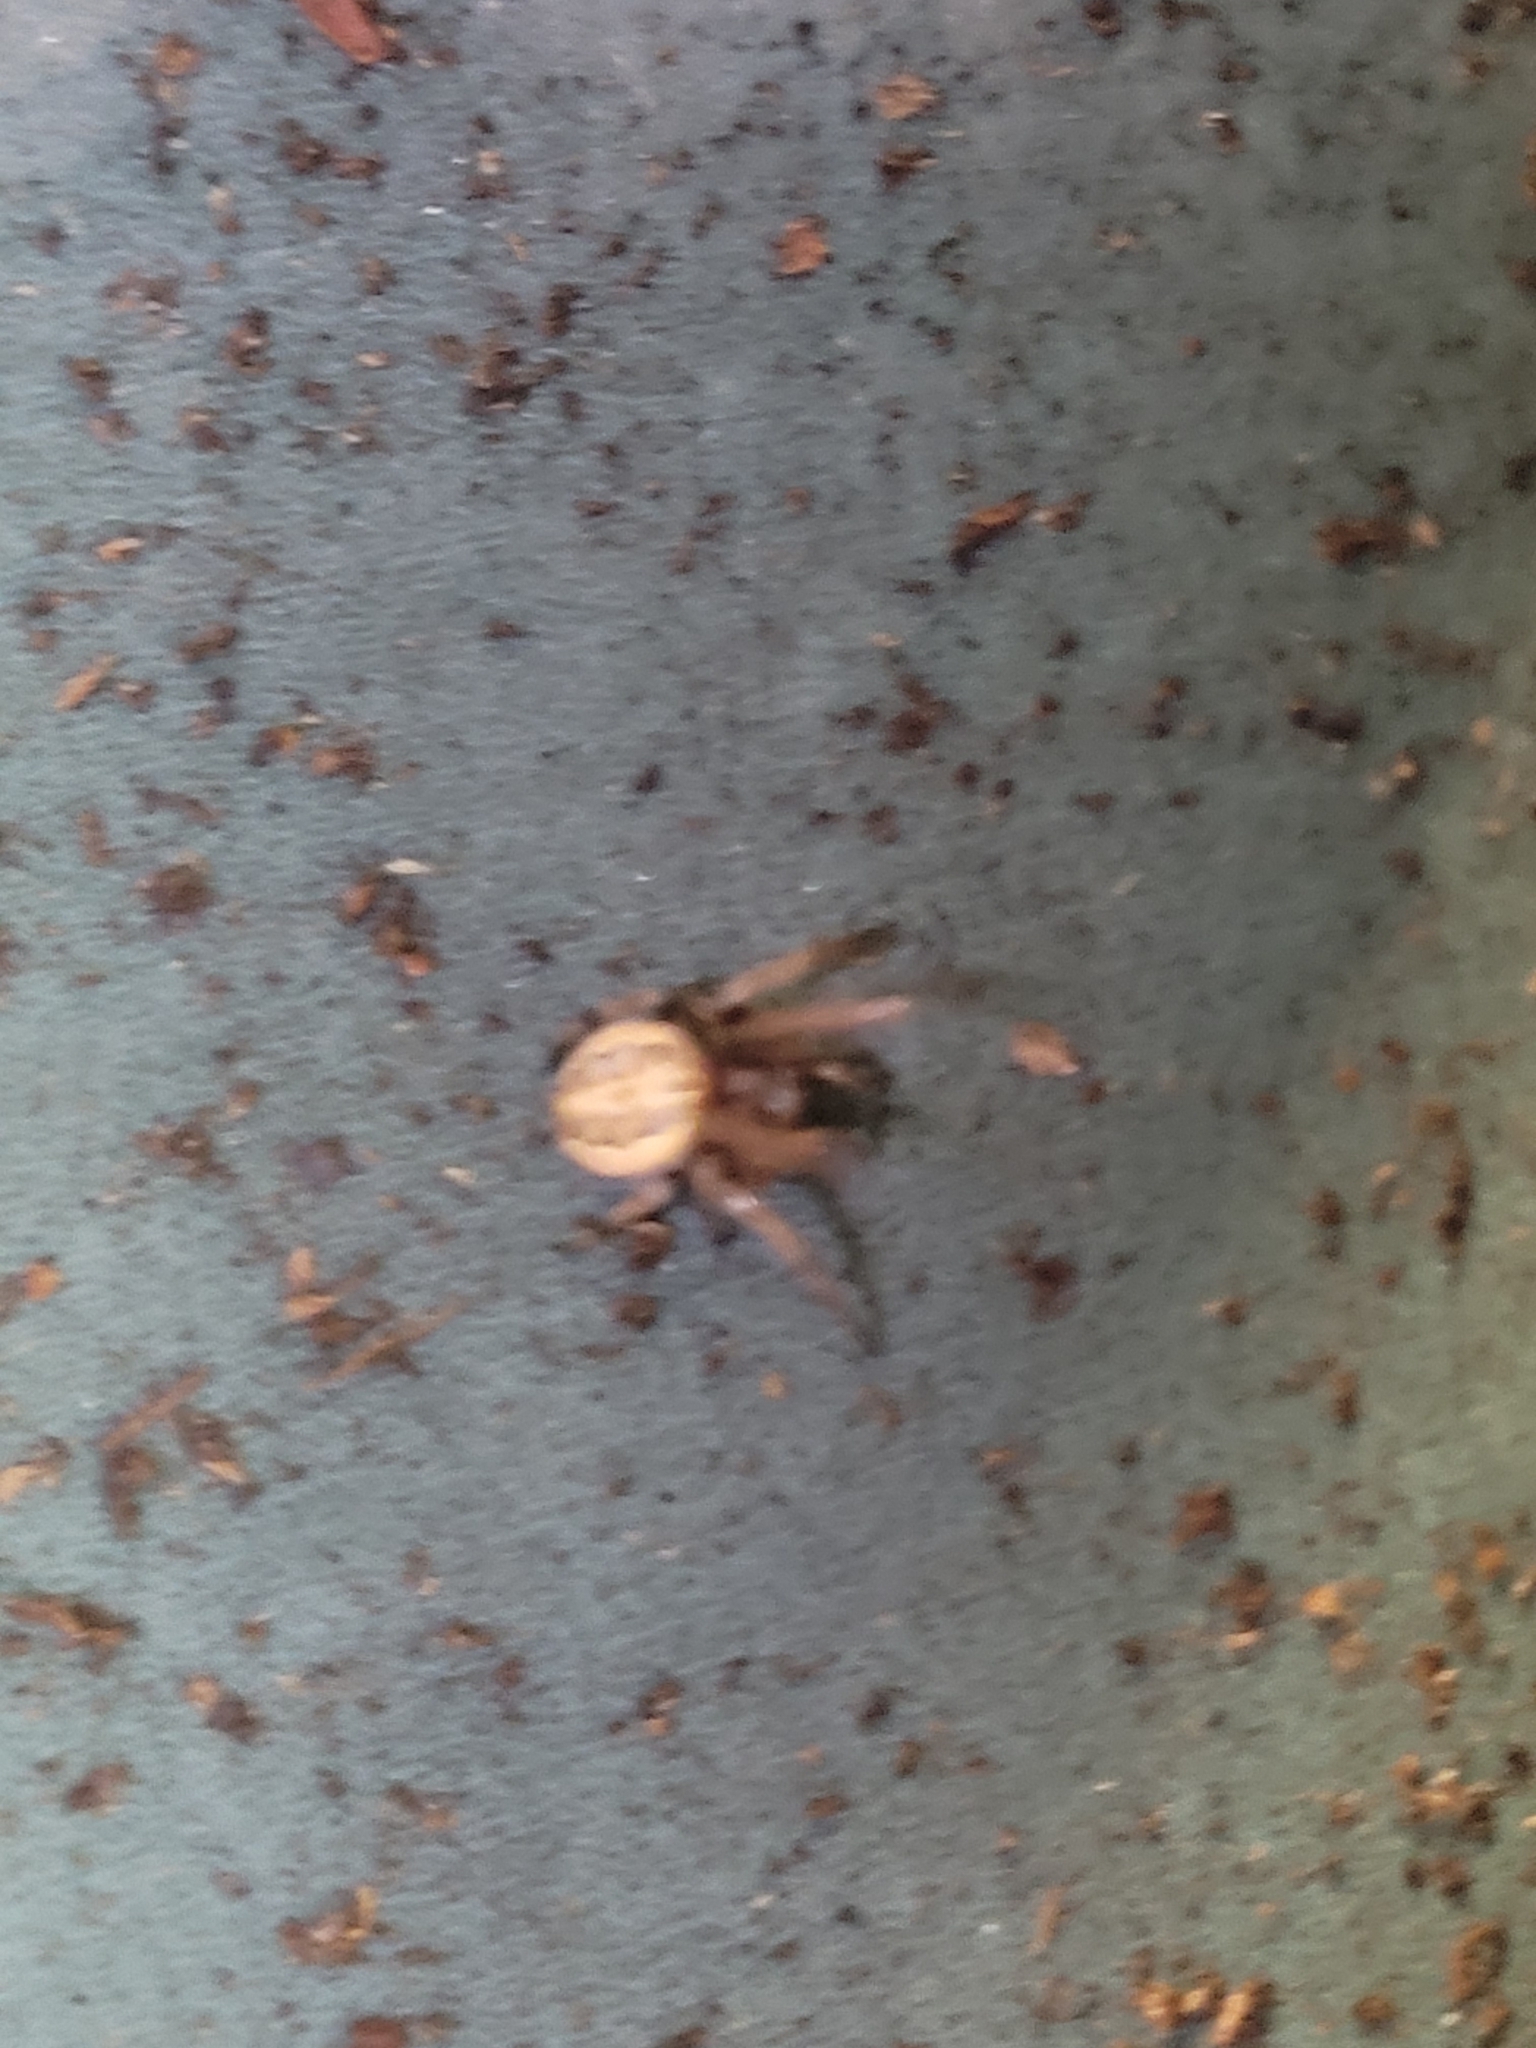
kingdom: Animalia
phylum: Arthropoda
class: Arachnida
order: Araneae
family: Araneidae
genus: Larinioides
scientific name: Larinioides cornutus
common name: Furrow orbweaver
